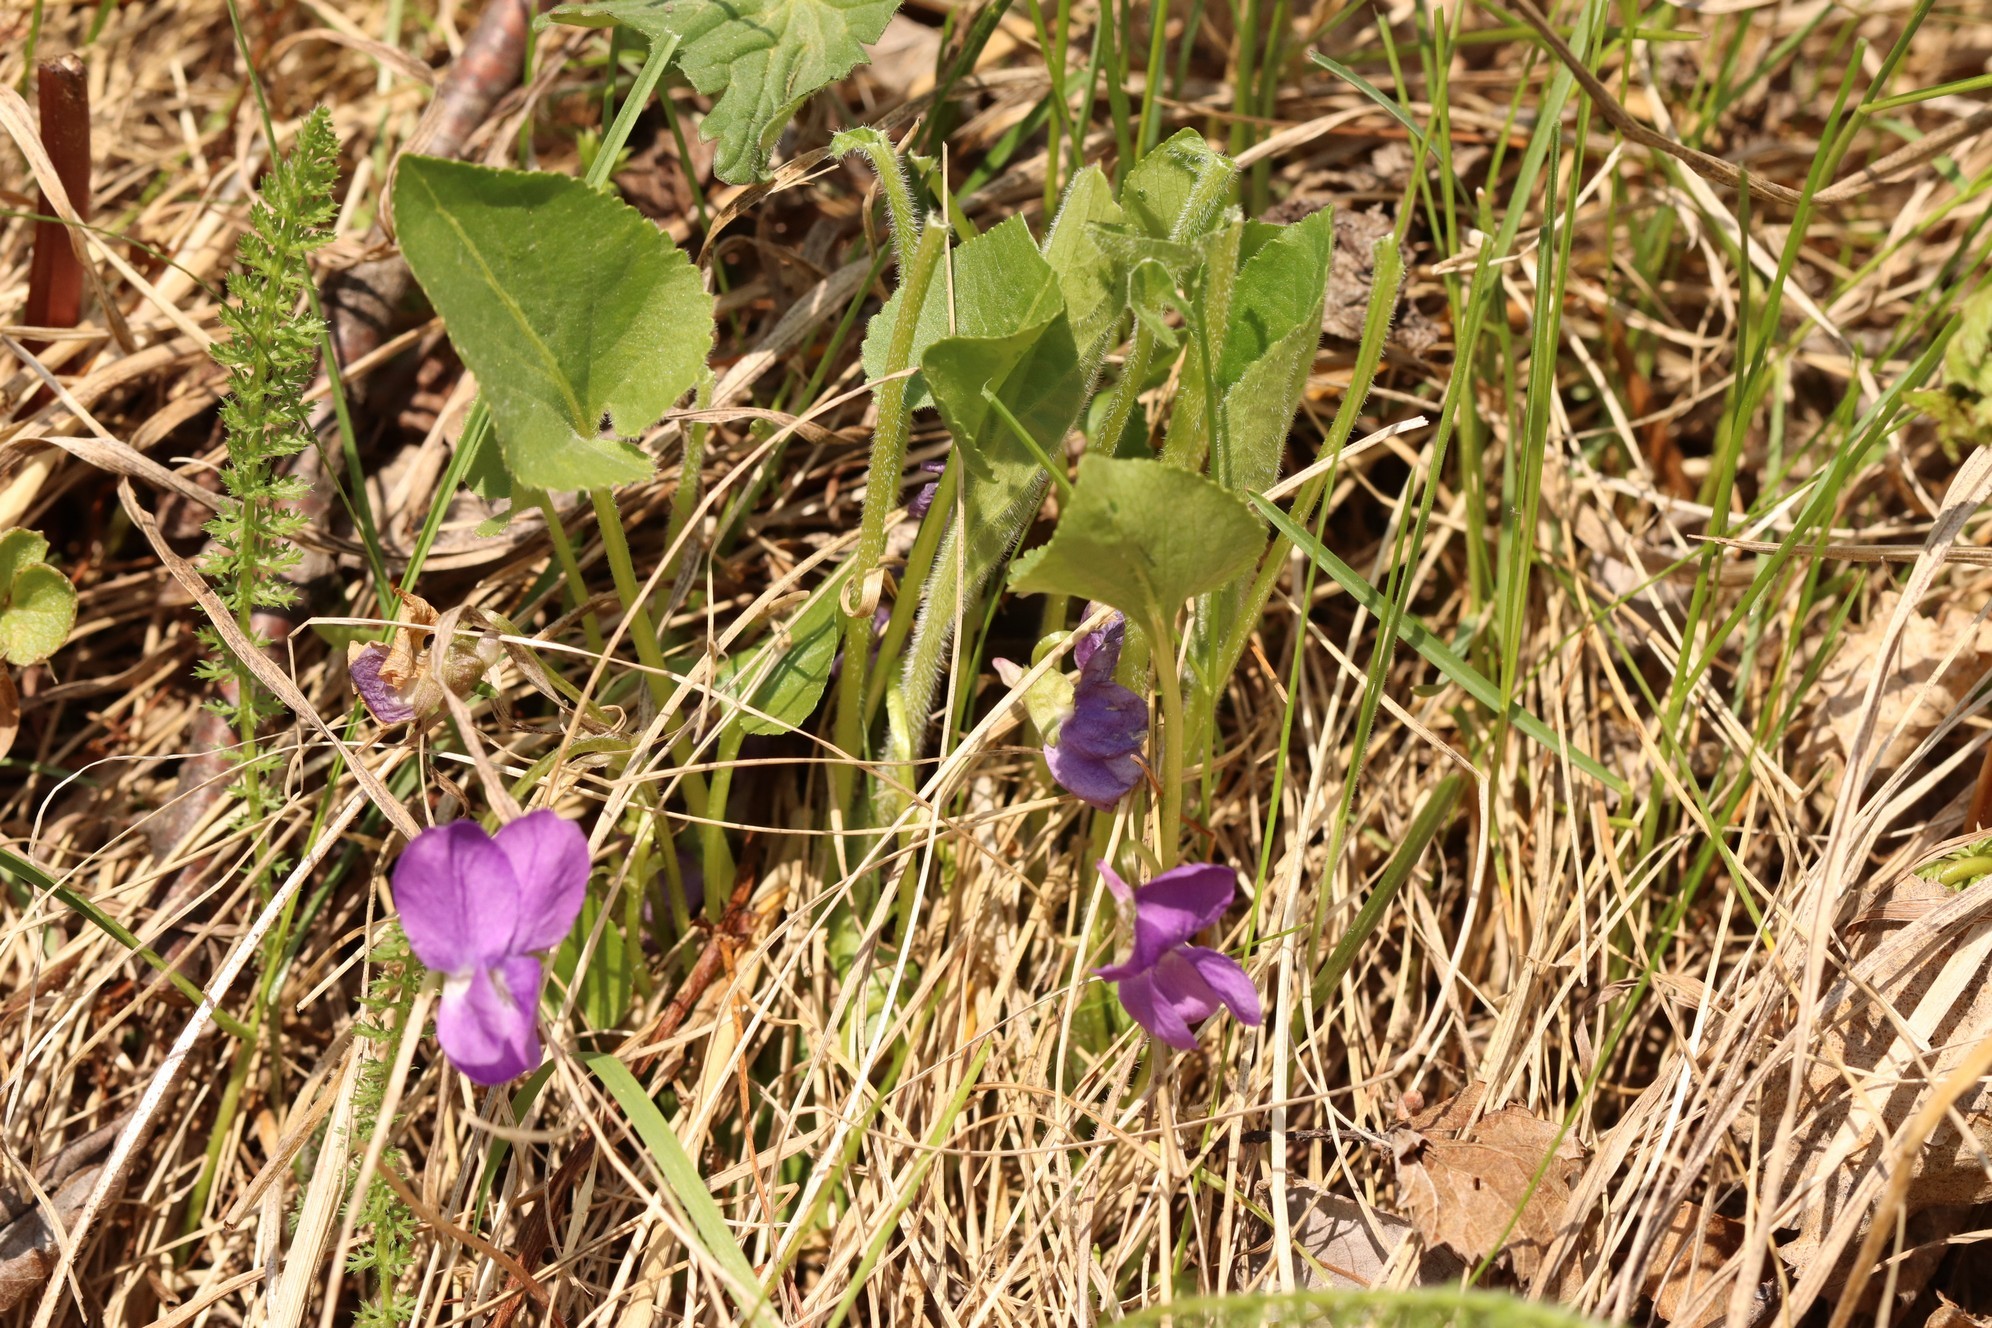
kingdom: Plantae
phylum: Tracheophyta
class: Magnoliopsida
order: Malpighiales
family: Violaceae
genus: Viola
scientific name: Viola hirta
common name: Hairy violet
